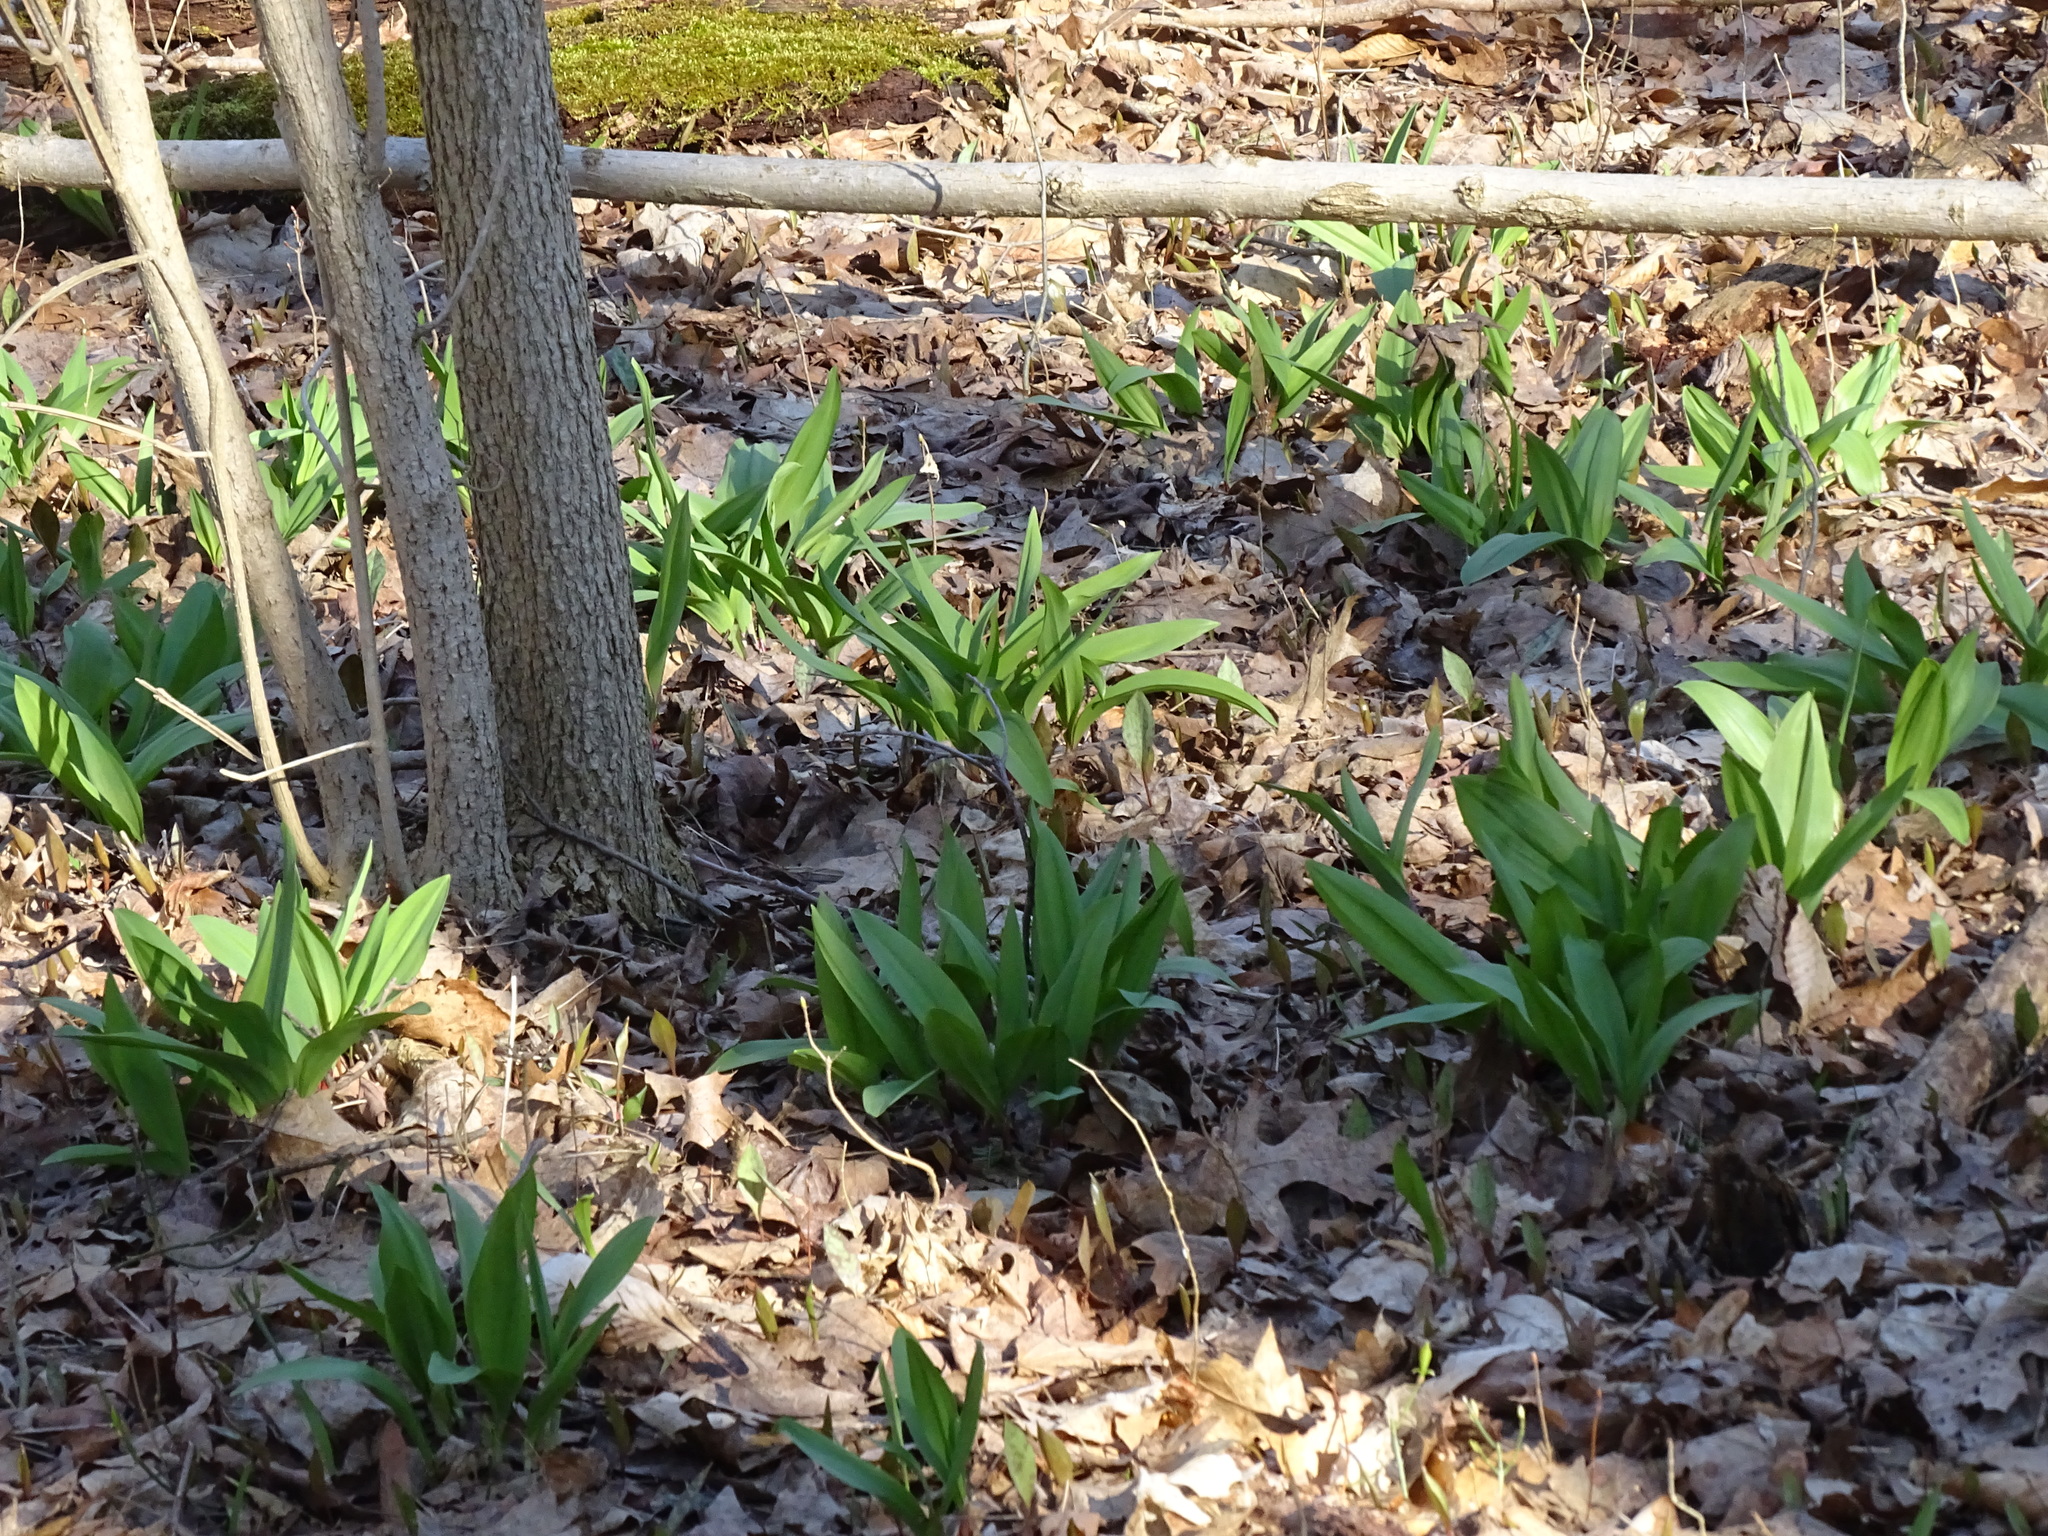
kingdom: Plantae
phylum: Tracheophyta
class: Liliopsida
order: Asparagales
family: Amaryllidaceae
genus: Allium
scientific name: Allium tricoccum
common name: Ramp
